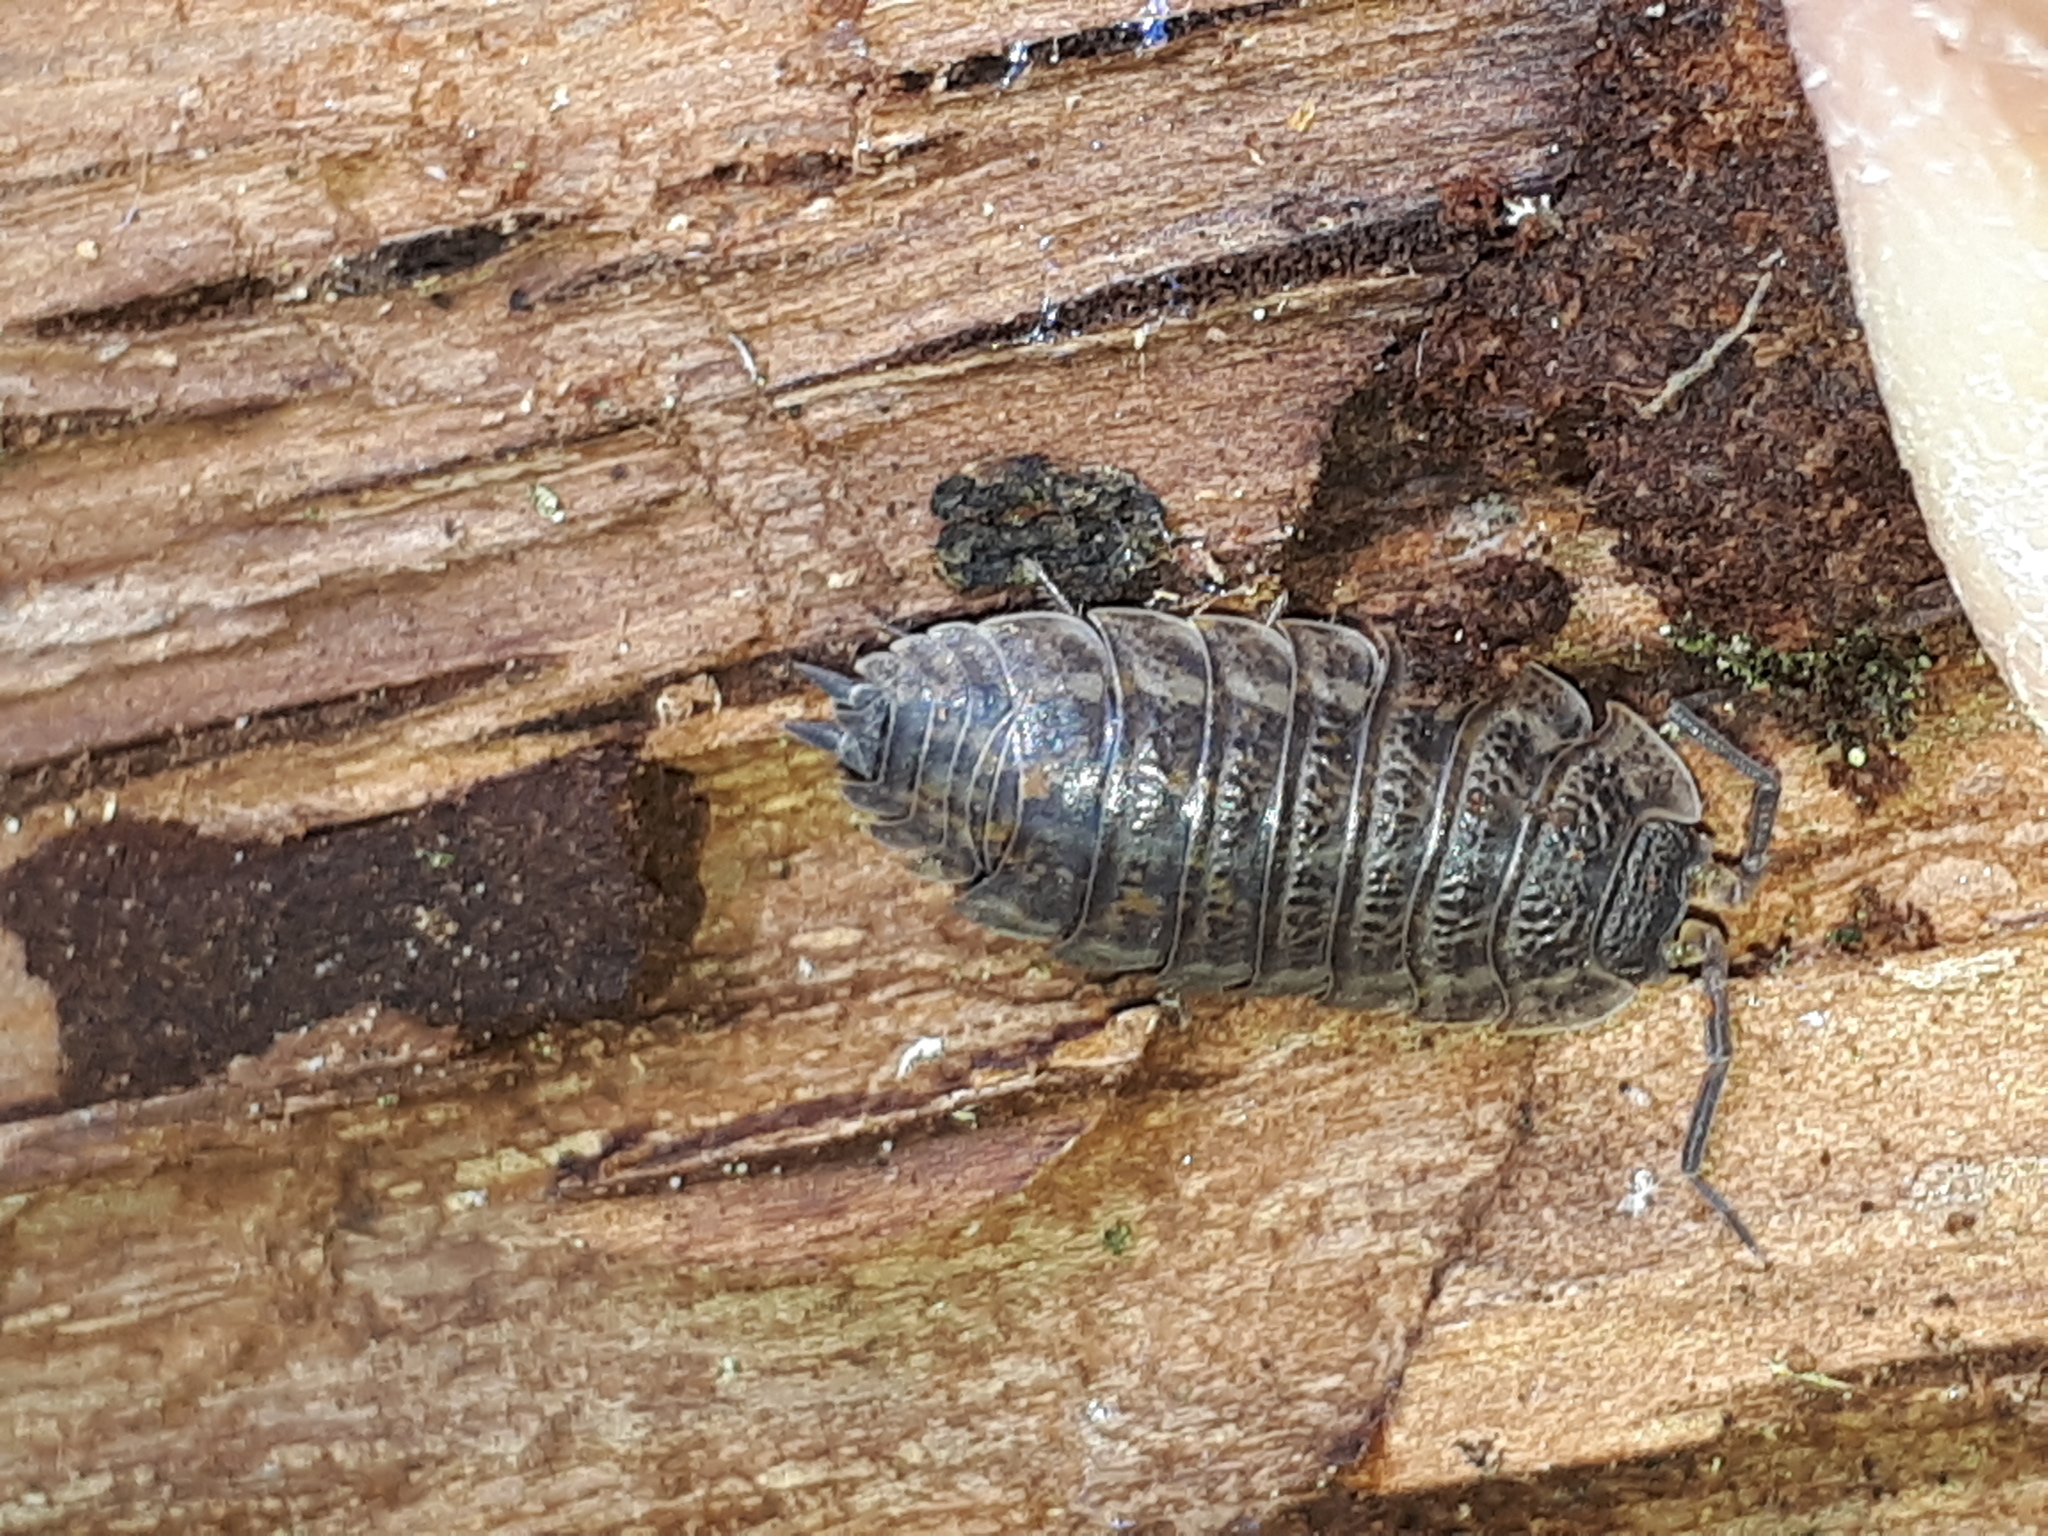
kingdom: Animalia
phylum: Arthropoda
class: Malacostraca
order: Isopoda
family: Trachelipodidae
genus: Trachelipus
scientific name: Trachelipus rathkii
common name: Isopod
